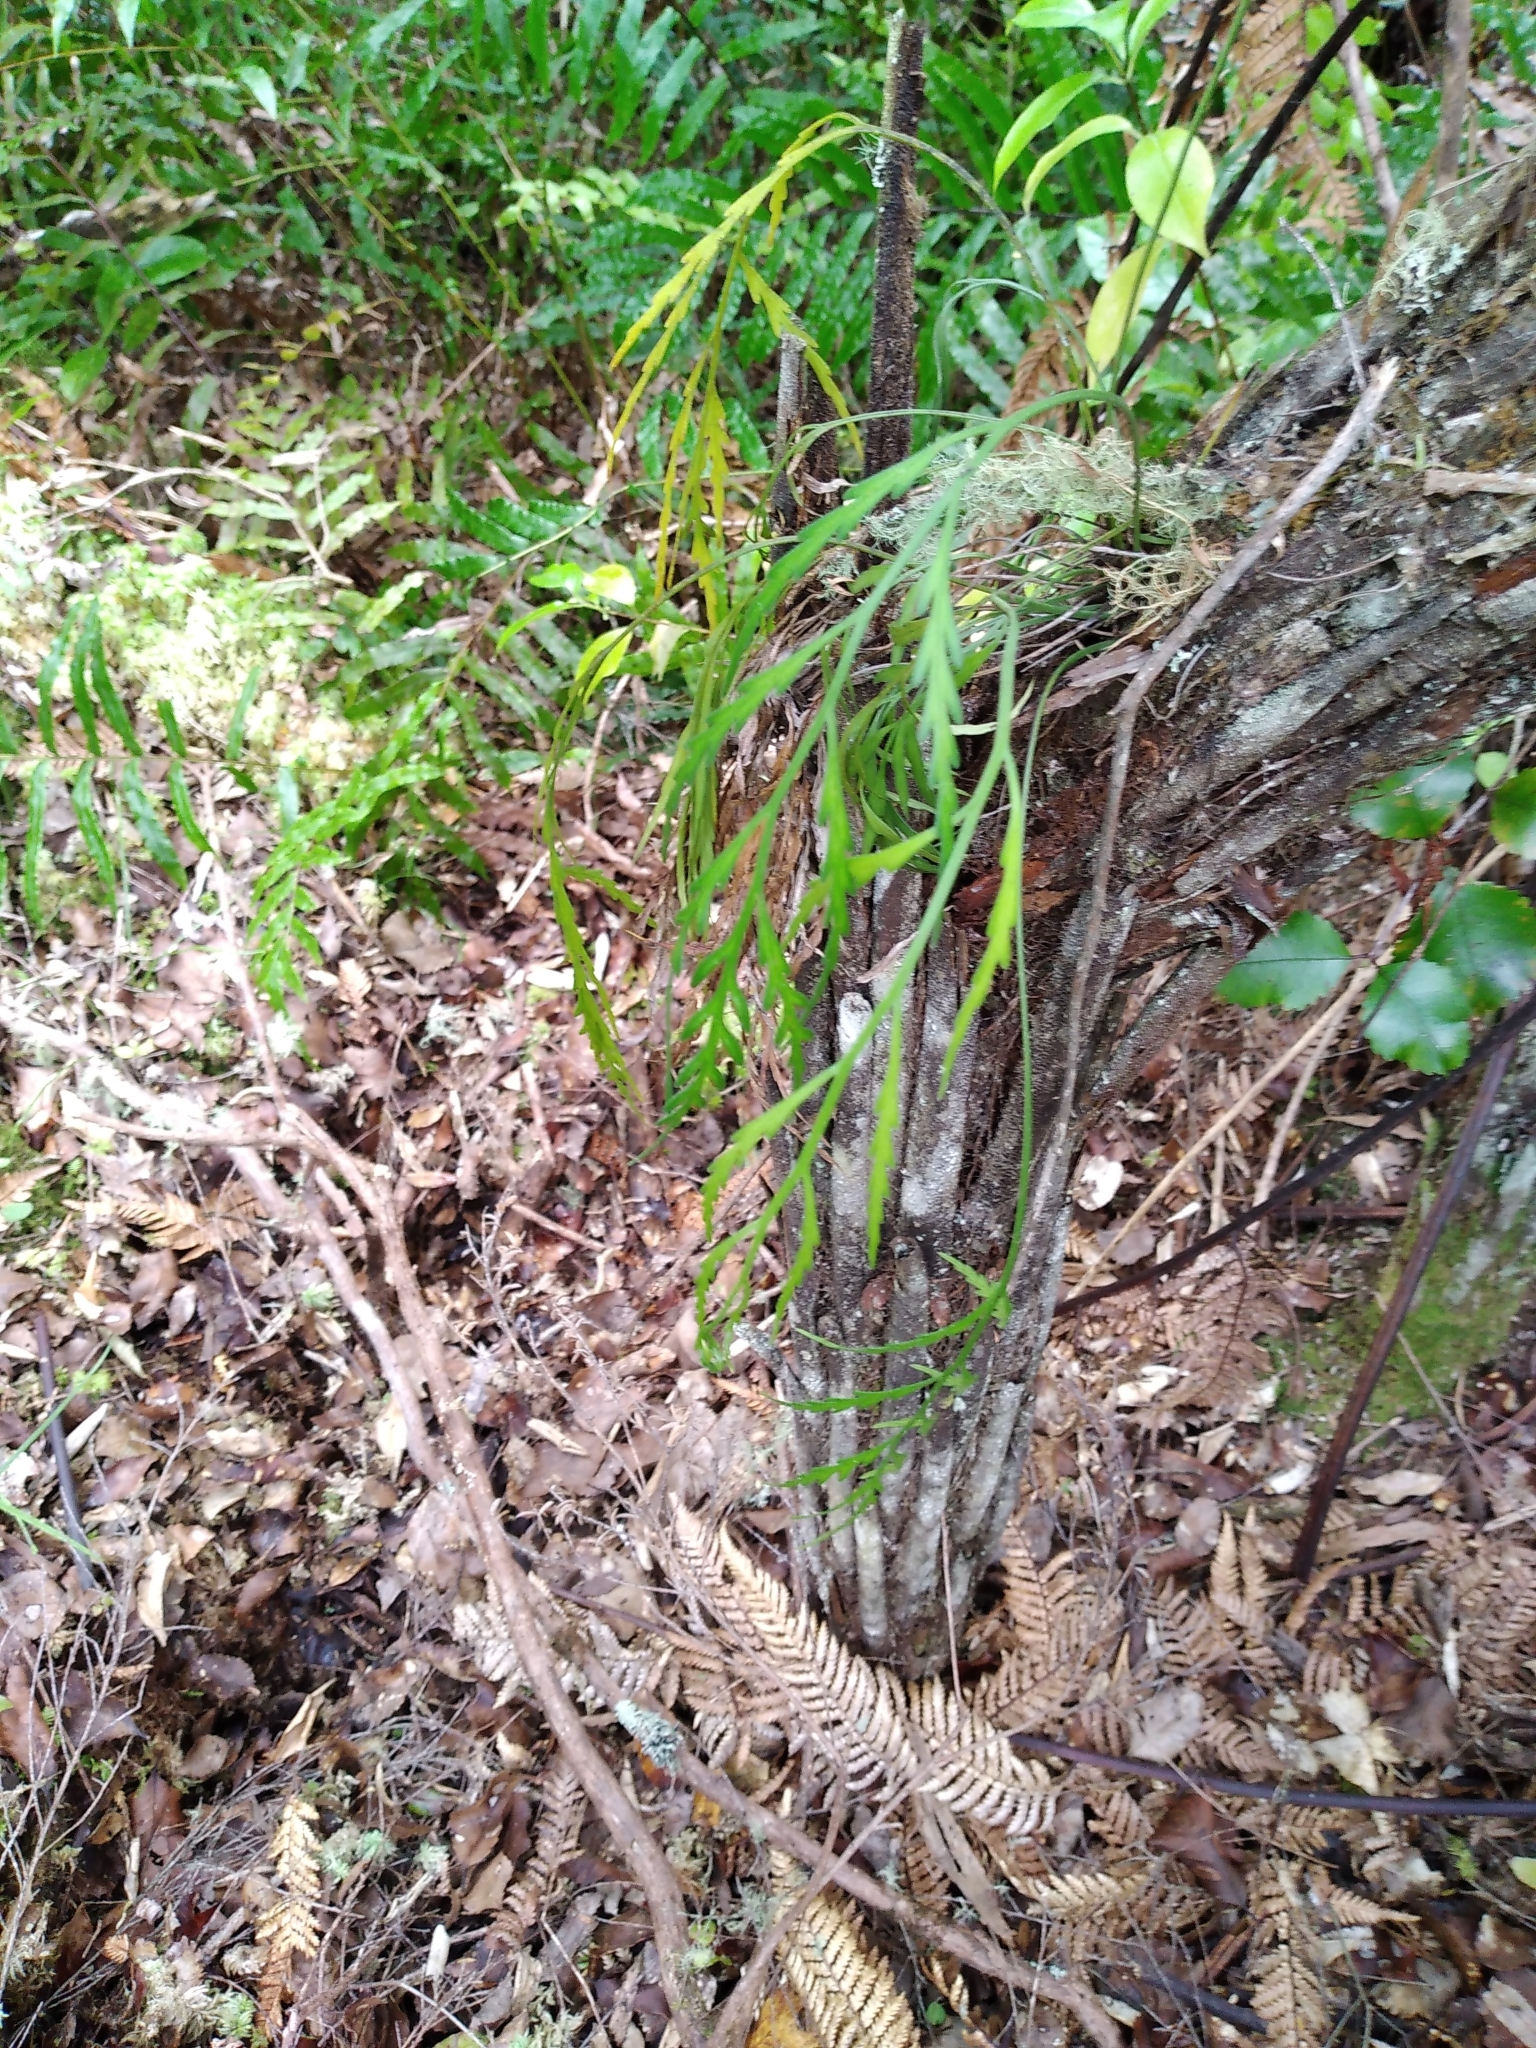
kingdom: Plantae
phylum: Tracheophyta
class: Polypodiopsida
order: Polypodiales
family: Aspleniaceae
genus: Asplenium
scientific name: Asplenium flaccidum
